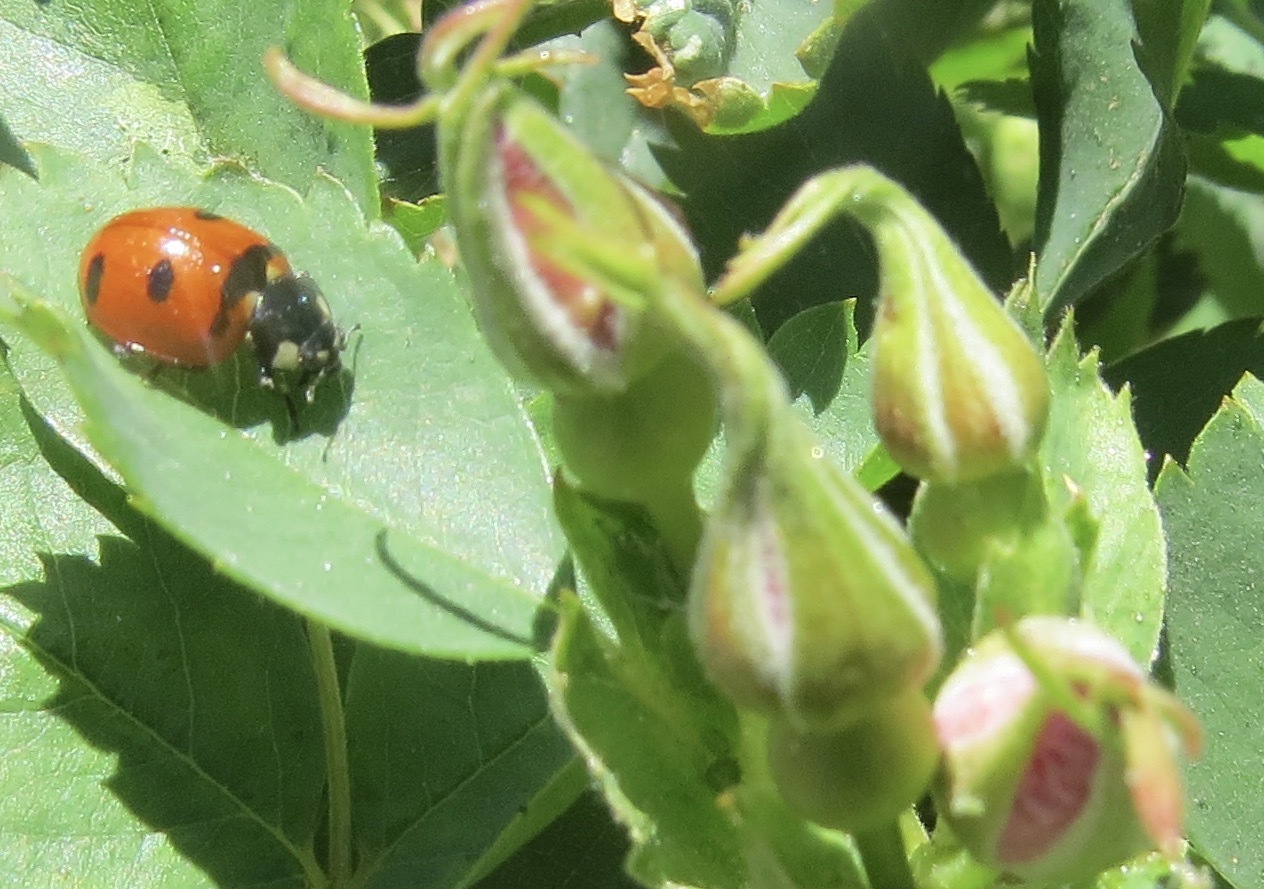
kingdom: Animalia
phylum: Arthropoda
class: Insecta
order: Coleoptera
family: Coccinellidae
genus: Coccinella
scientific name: Coccinella transversoguttata
